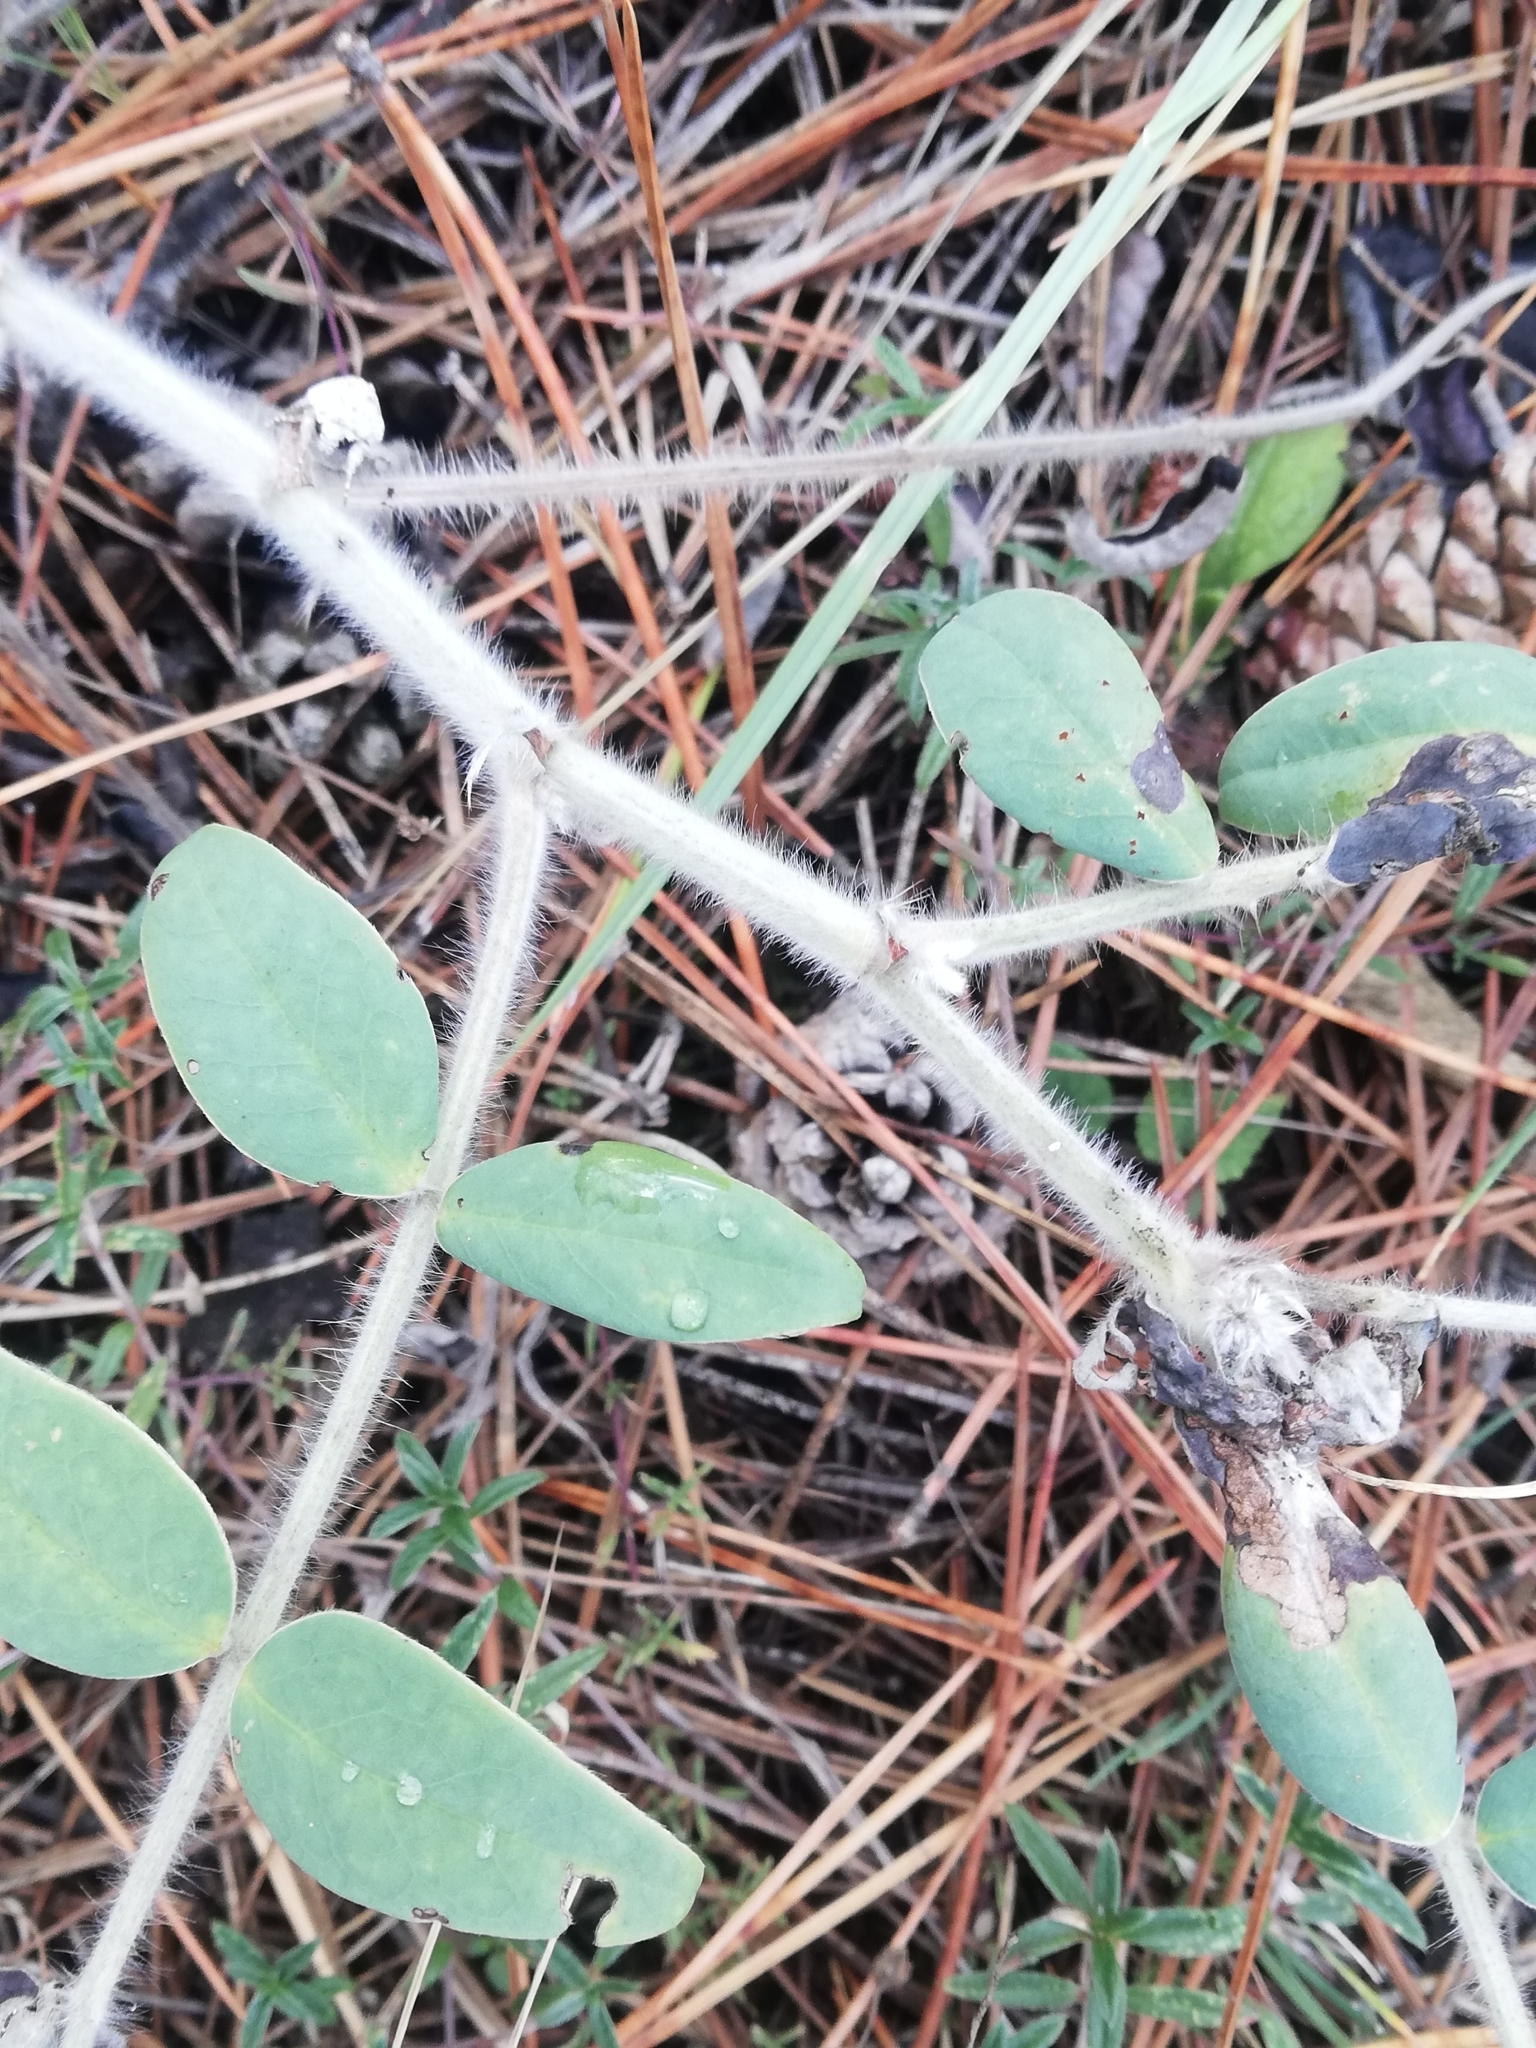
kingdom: Plantae
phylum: Tracheophyta
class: Magnoliopsida
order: Fabales
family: Fabaceae
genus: Onobrychis
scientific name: Onobrychis pallasii
